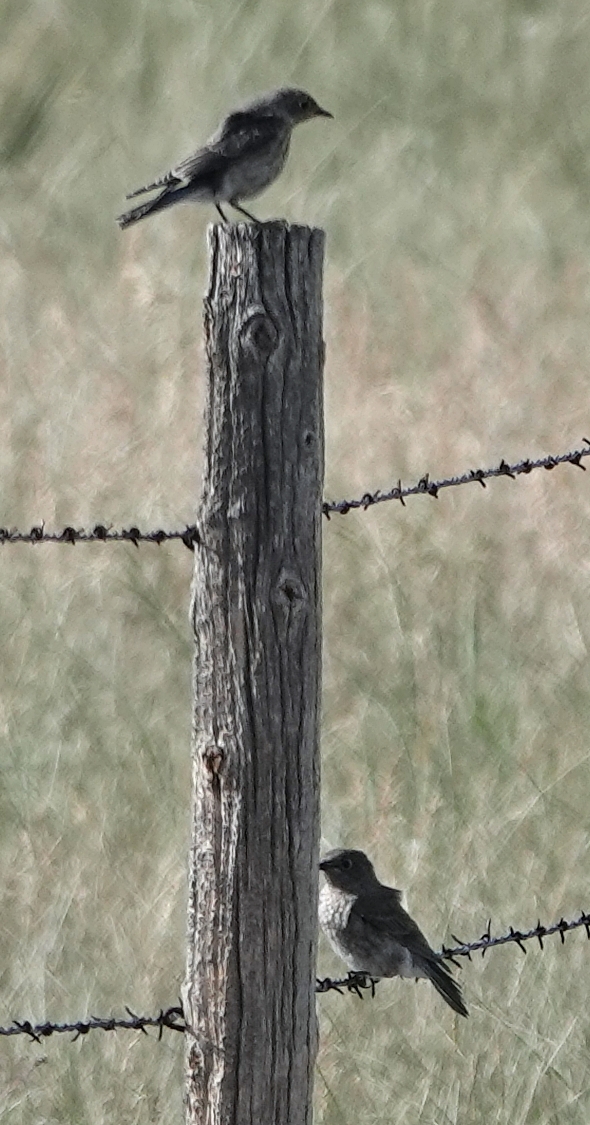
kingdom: Animalia
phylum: Chordata
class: Aves
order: Passeriformes
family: Turdidae
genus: Sialia
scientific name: Sialia sialis
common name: Eastern bluebird
